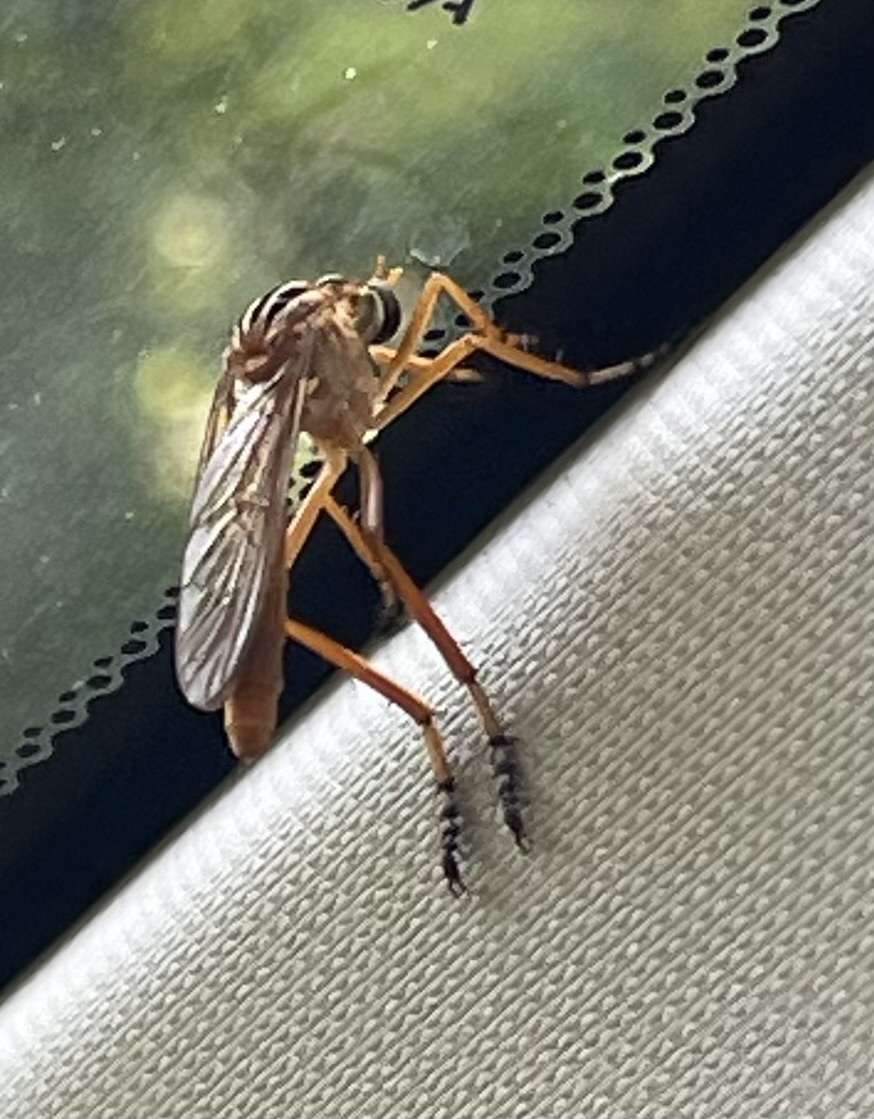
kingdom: Animalia
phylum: Arthropoda
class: Insecta
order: Diptera
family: Asilidae
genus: Diogmites
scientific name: Diogmites neoternatus
